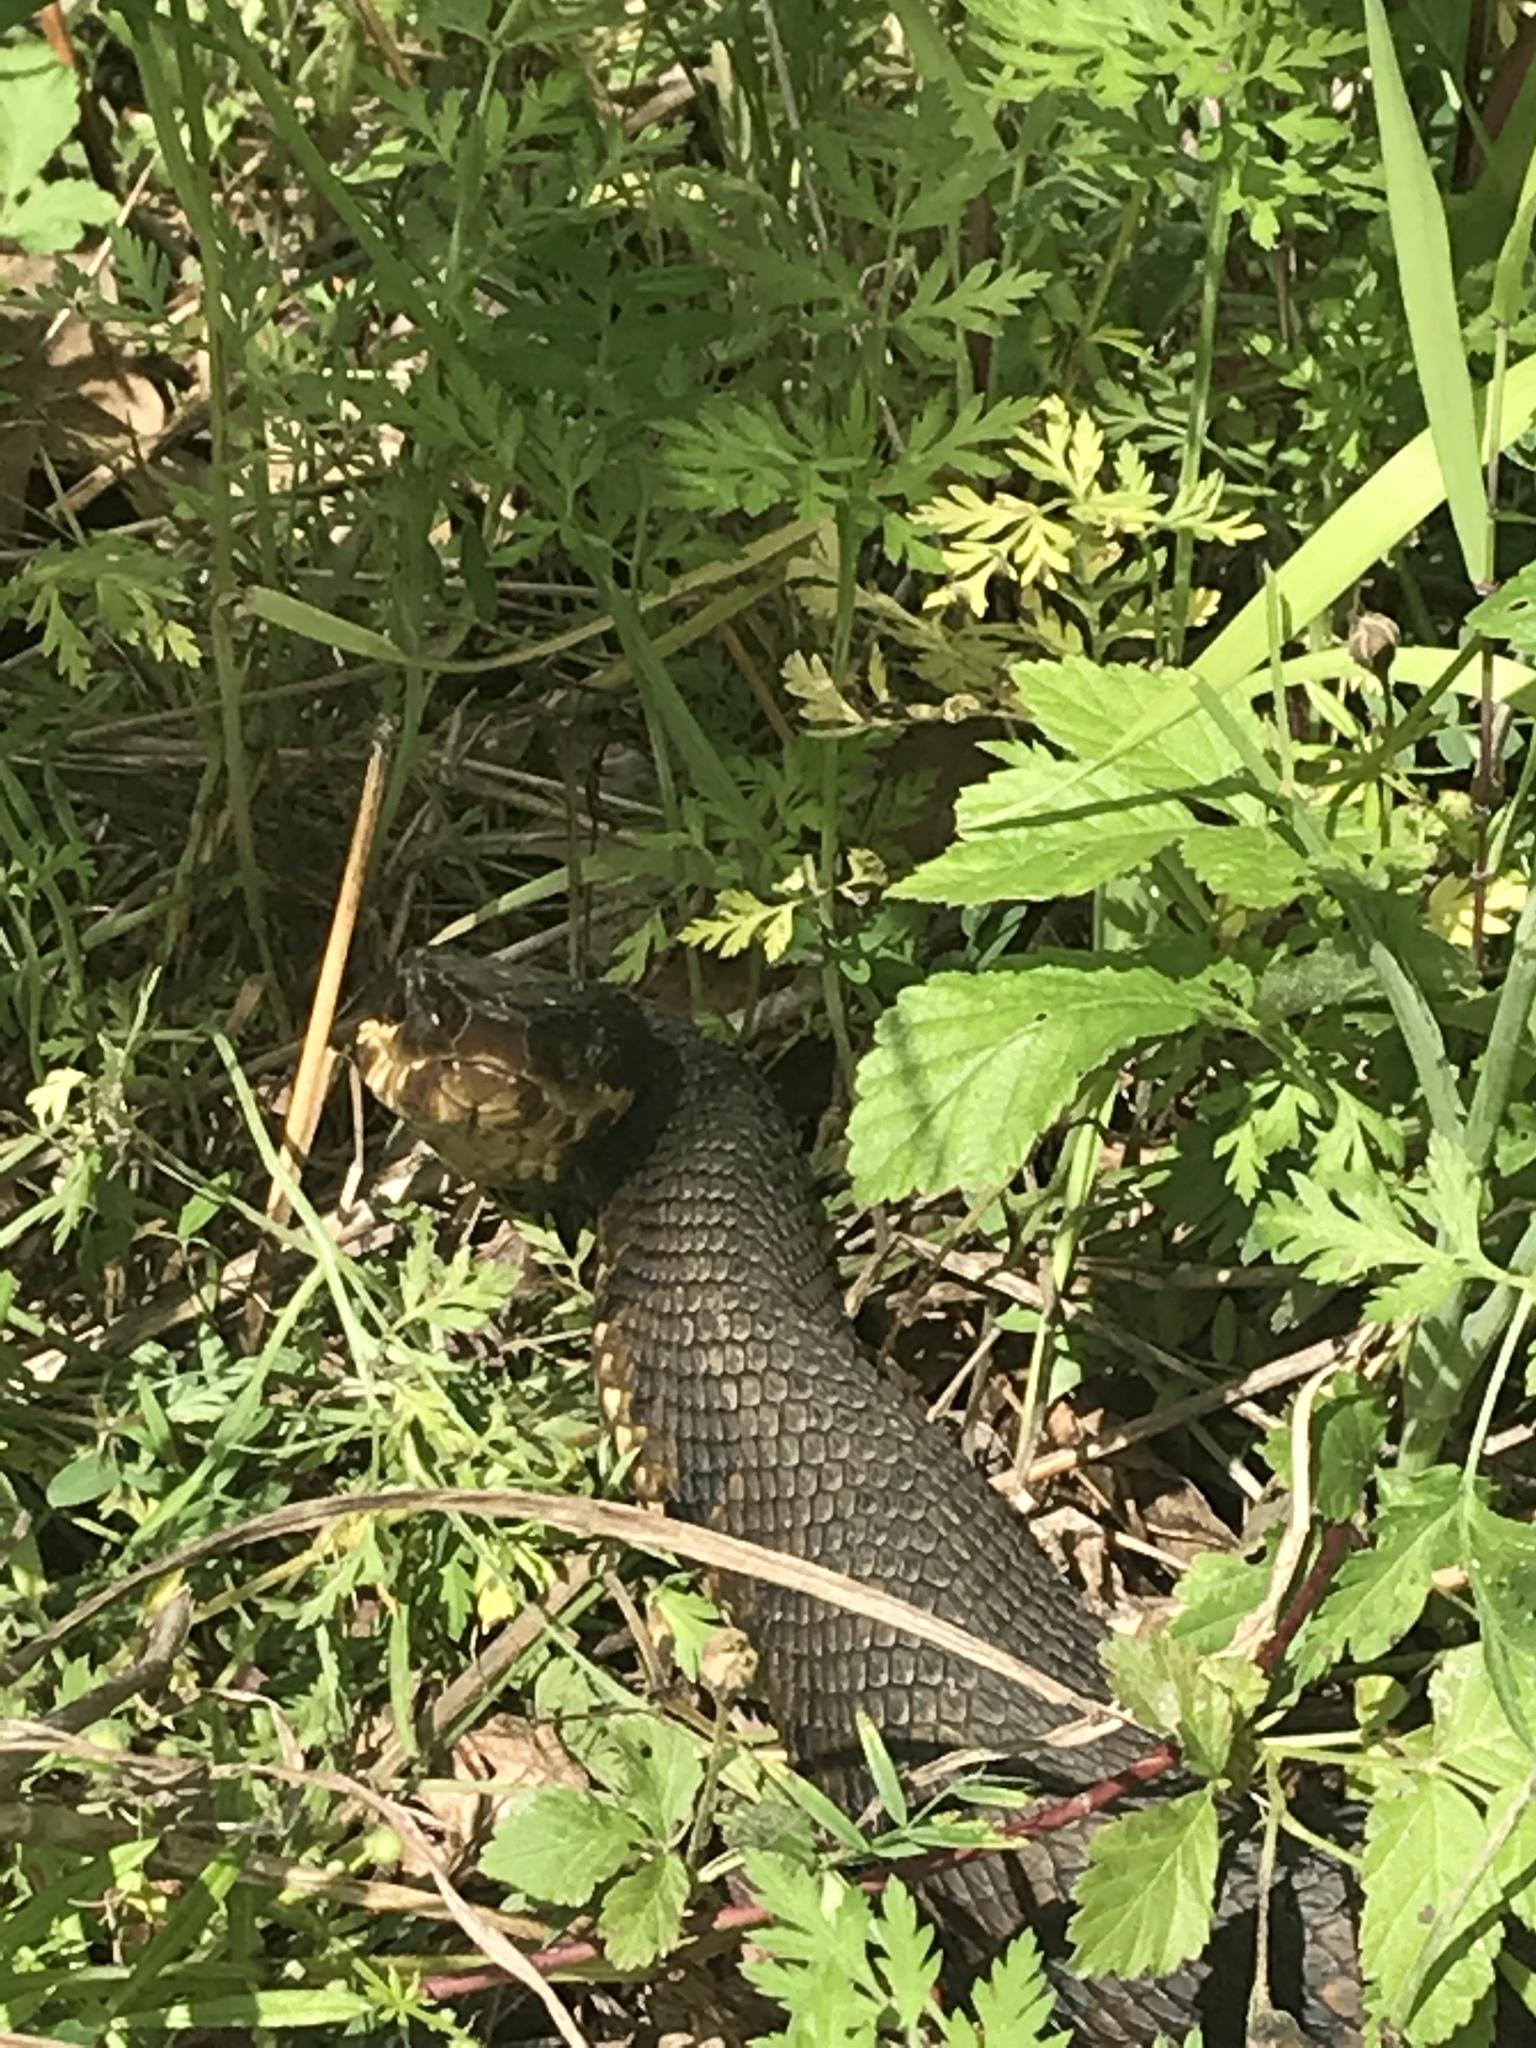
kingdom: Animalia
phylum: Chordata
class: Squamata
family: Viperidae
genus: Agkistrodon
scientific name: Agkistrodon piscivorus
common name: Cottonmouth
